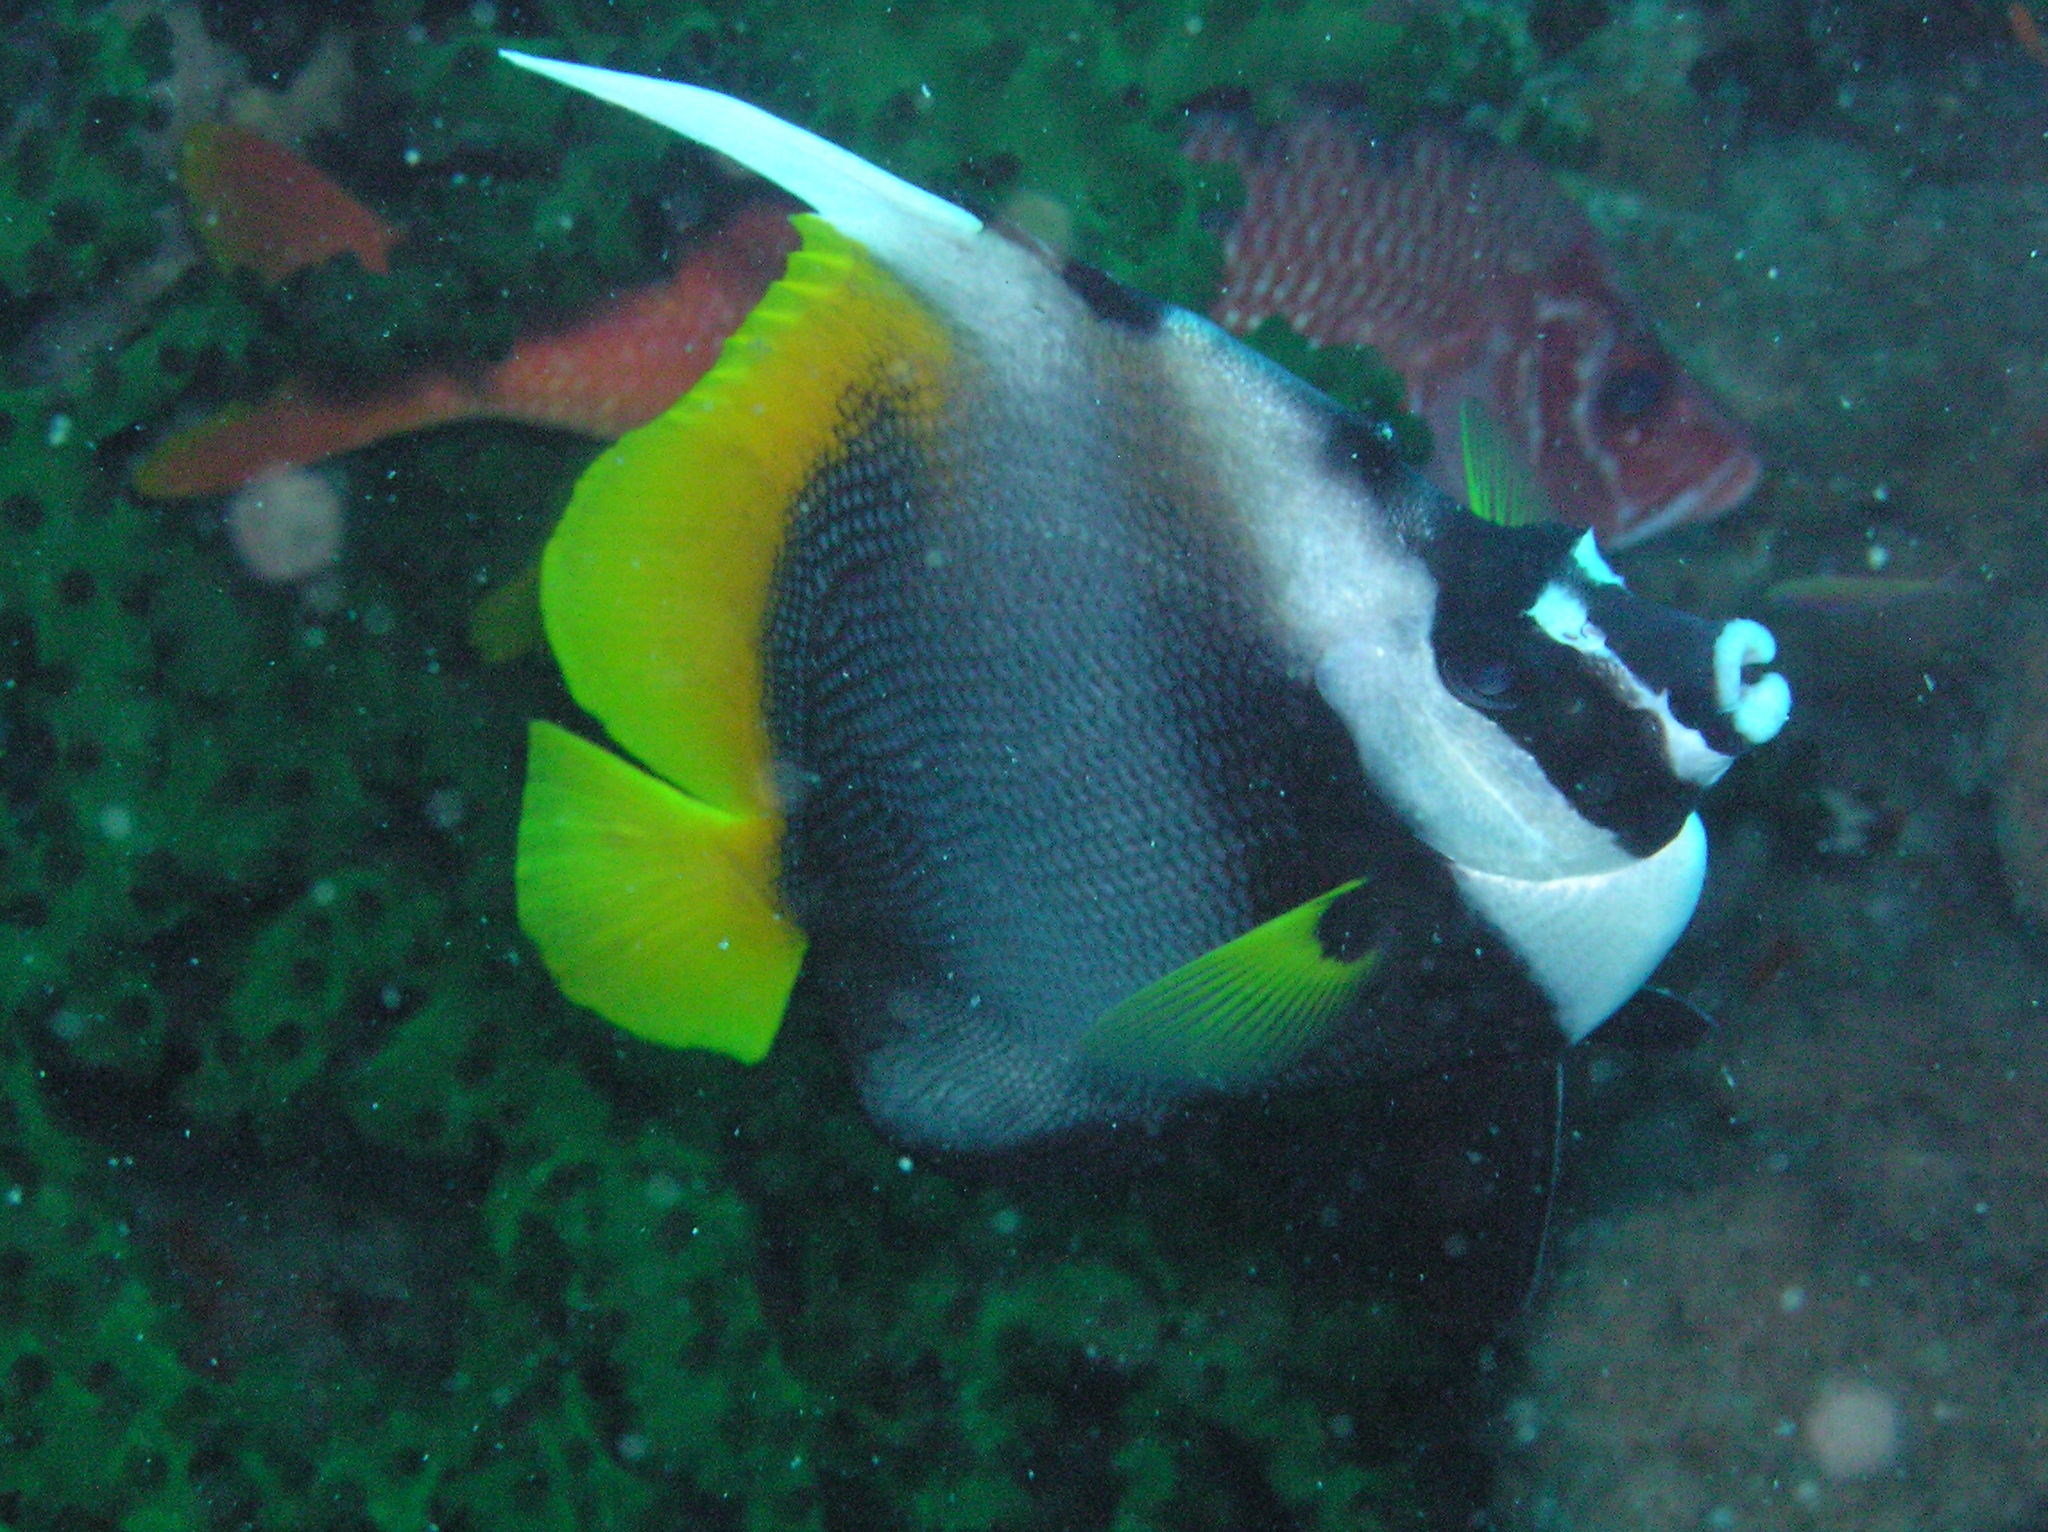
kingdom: Animalia
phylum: Chordata
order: Perciformes
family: Chaetodontidae
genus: Heniochus
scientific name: Heniochus singularius
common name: Singular bannerfish
